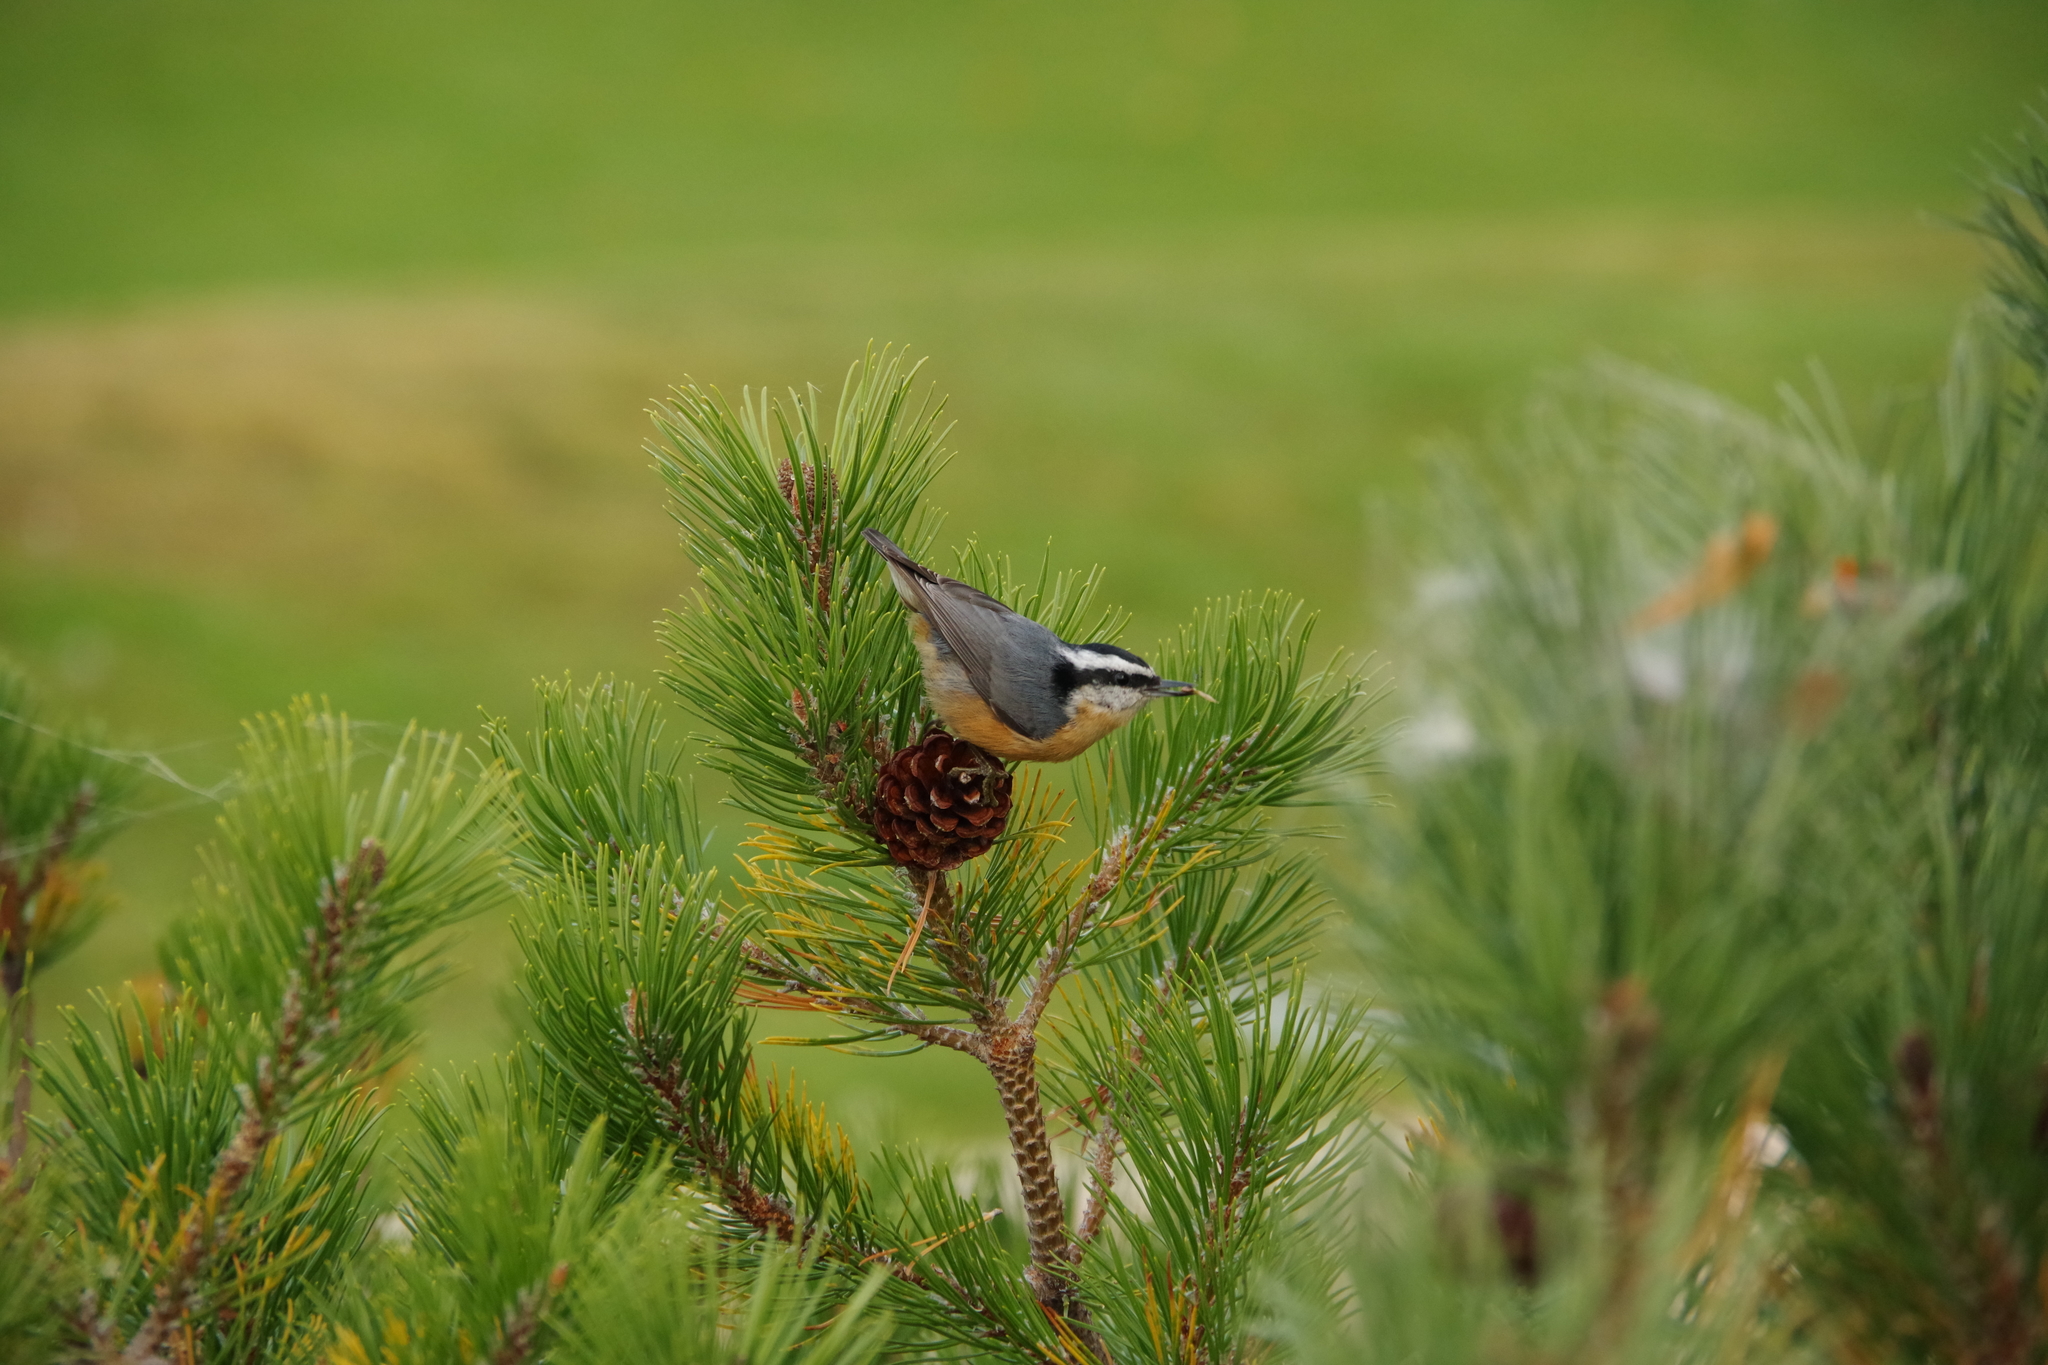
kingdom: Animalia
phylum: Chordata
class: Aves
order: Passeriformes
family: Sittidae
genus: Sitta
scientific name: Sitta canadensis
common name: Red-breasted nuthatch
